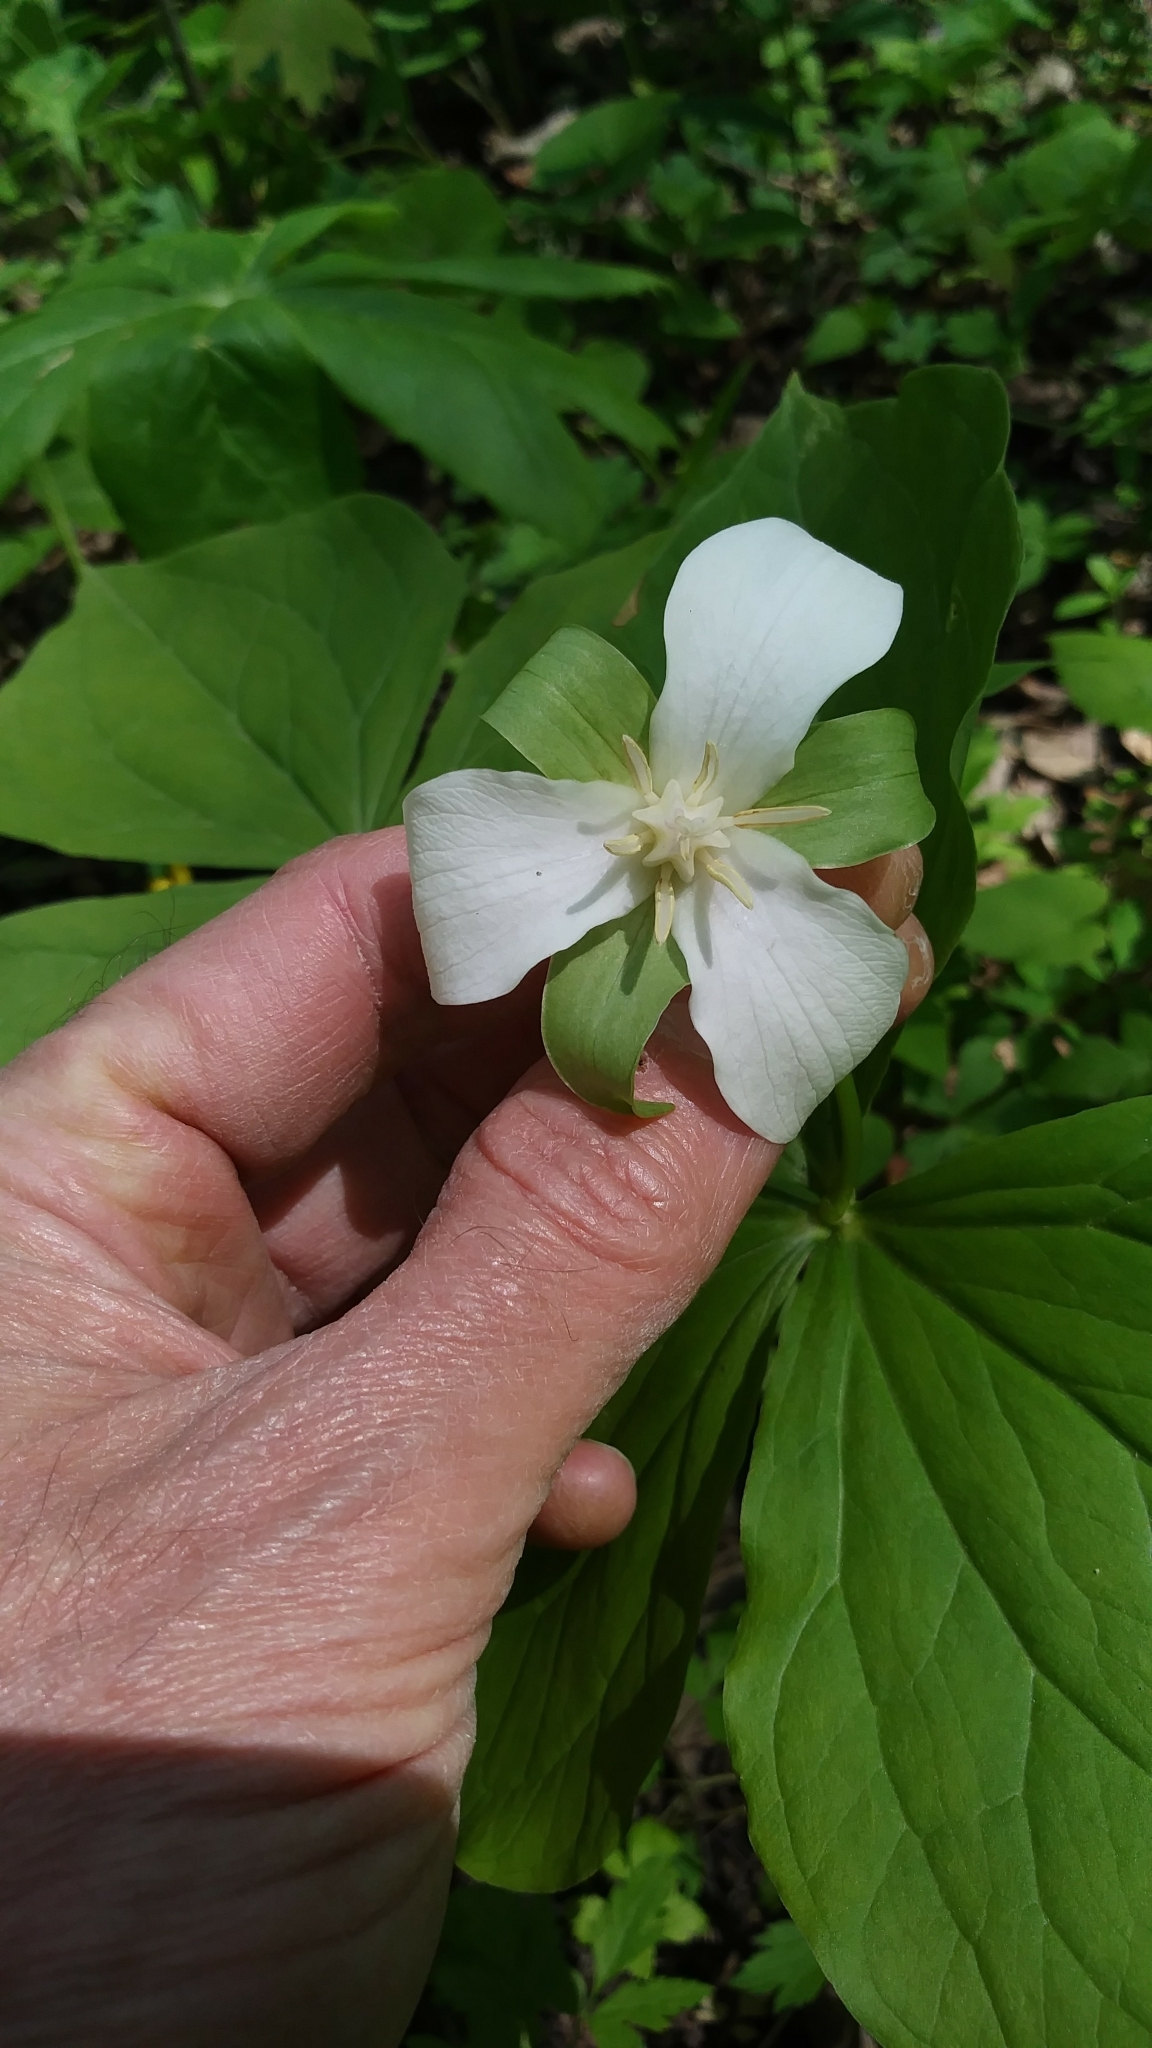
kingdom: Plantae
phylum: Tracheophyta
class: Liliopsida
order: Liliales
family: Melanthiaceae
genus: Trillium
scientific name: Trillium flexipes
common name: Drooping trillium
